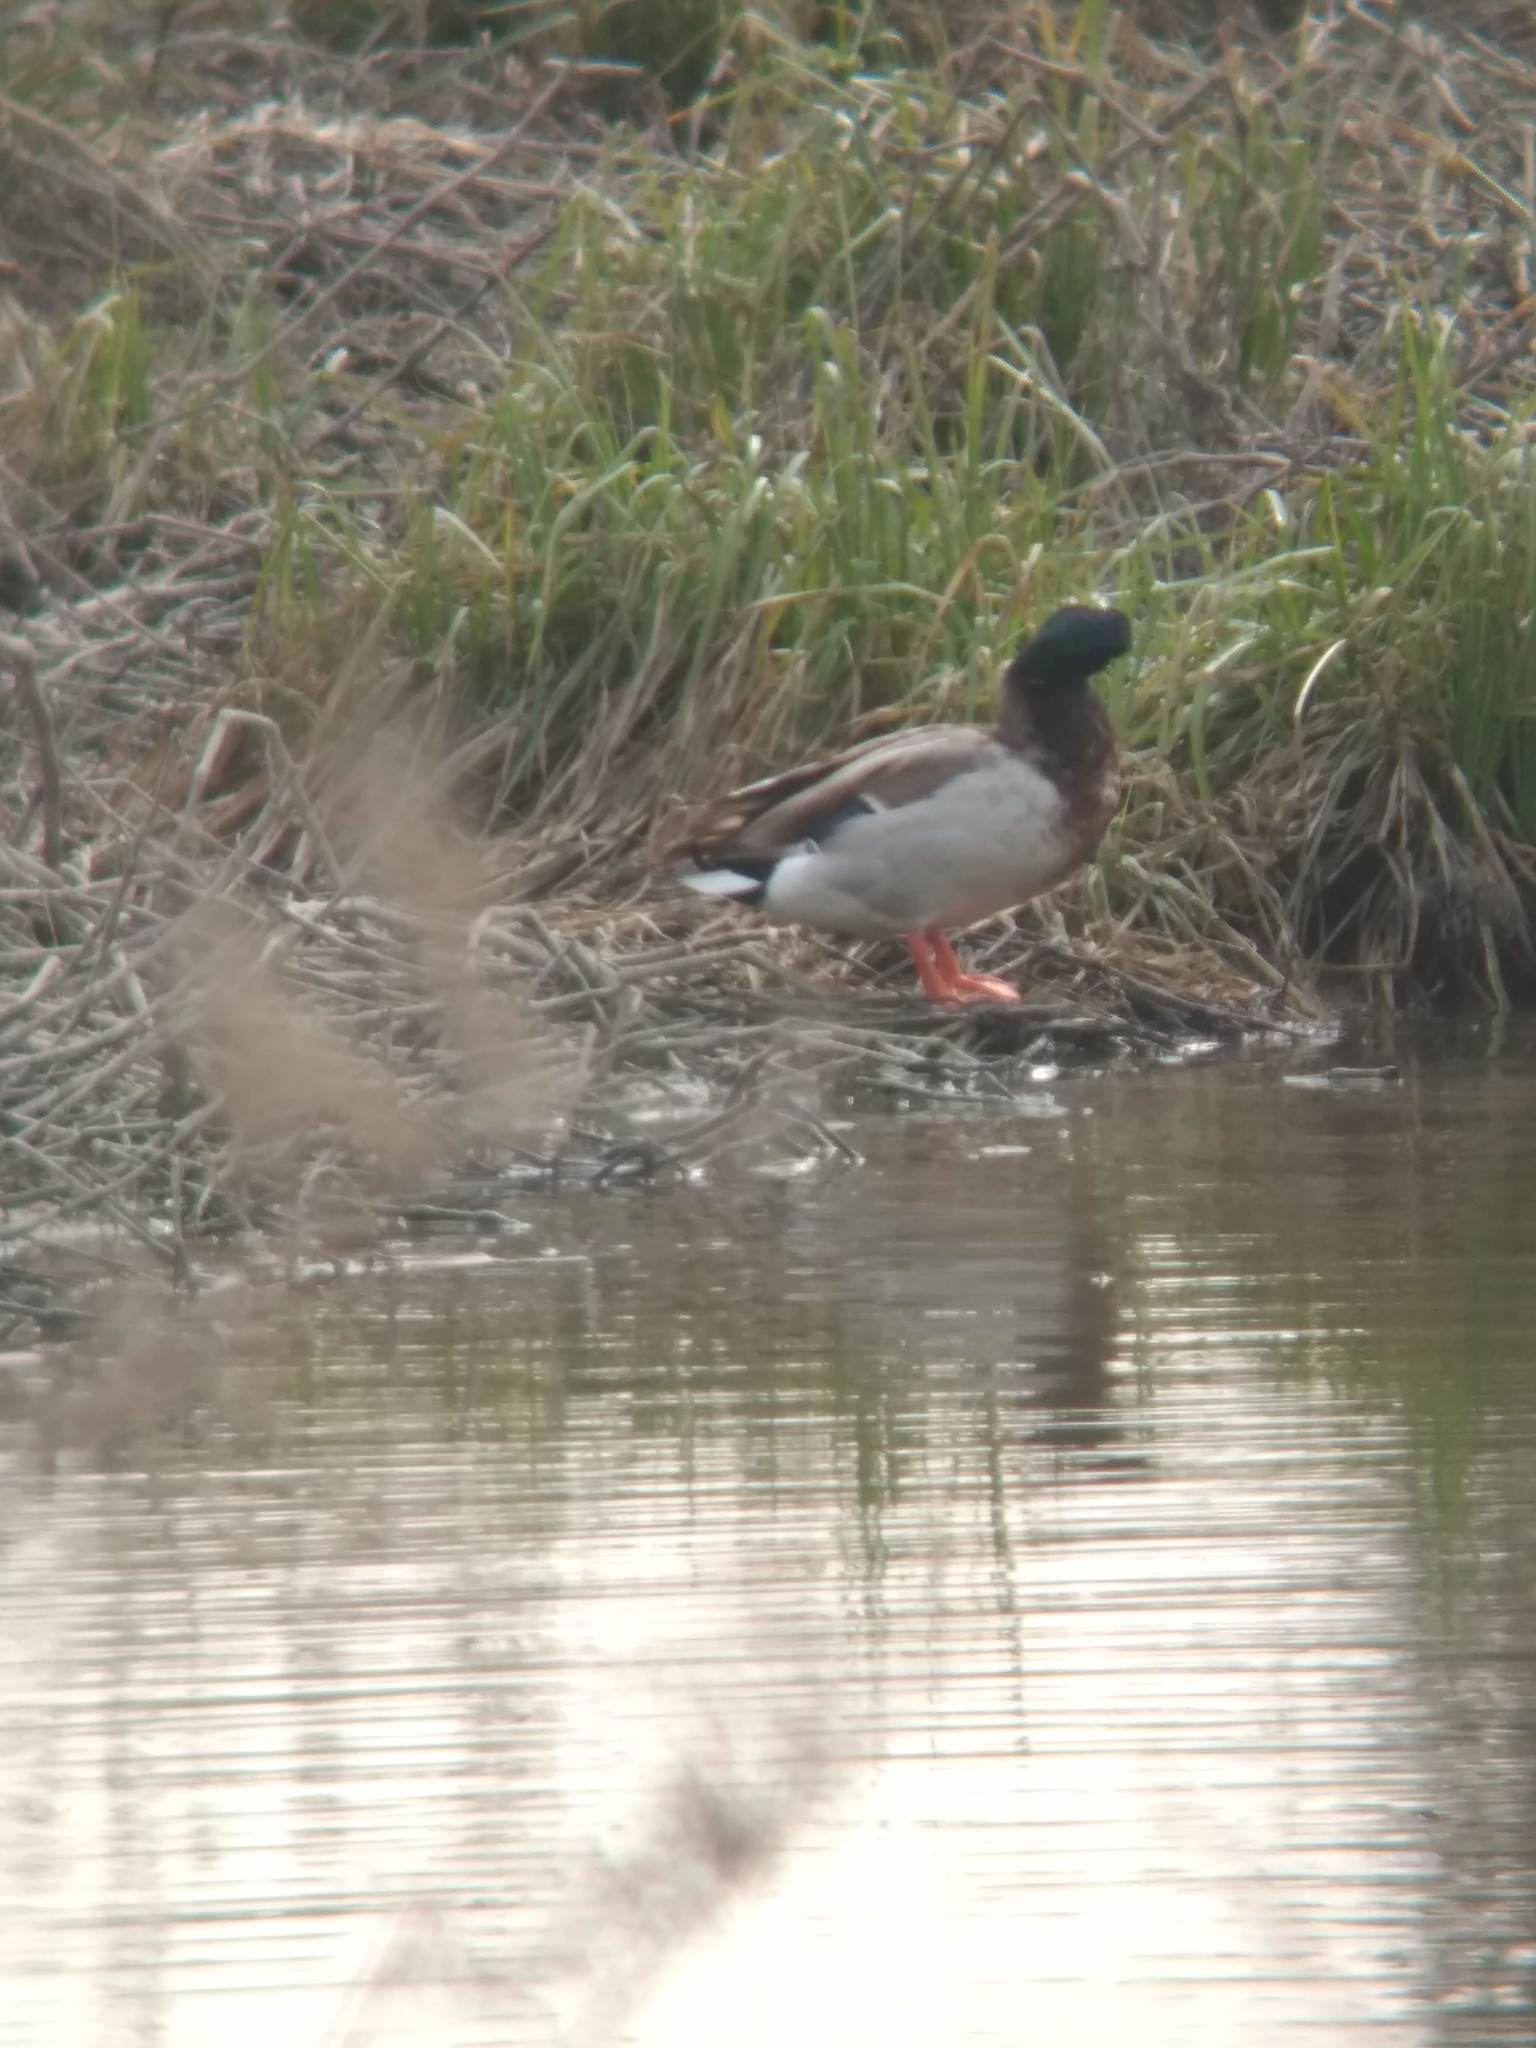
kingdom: Animalia
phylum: Chordata
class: Aves
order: Anseriformes
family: Anatidae
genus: Anas
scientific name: Anas platyrhynchos
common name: Mallard
